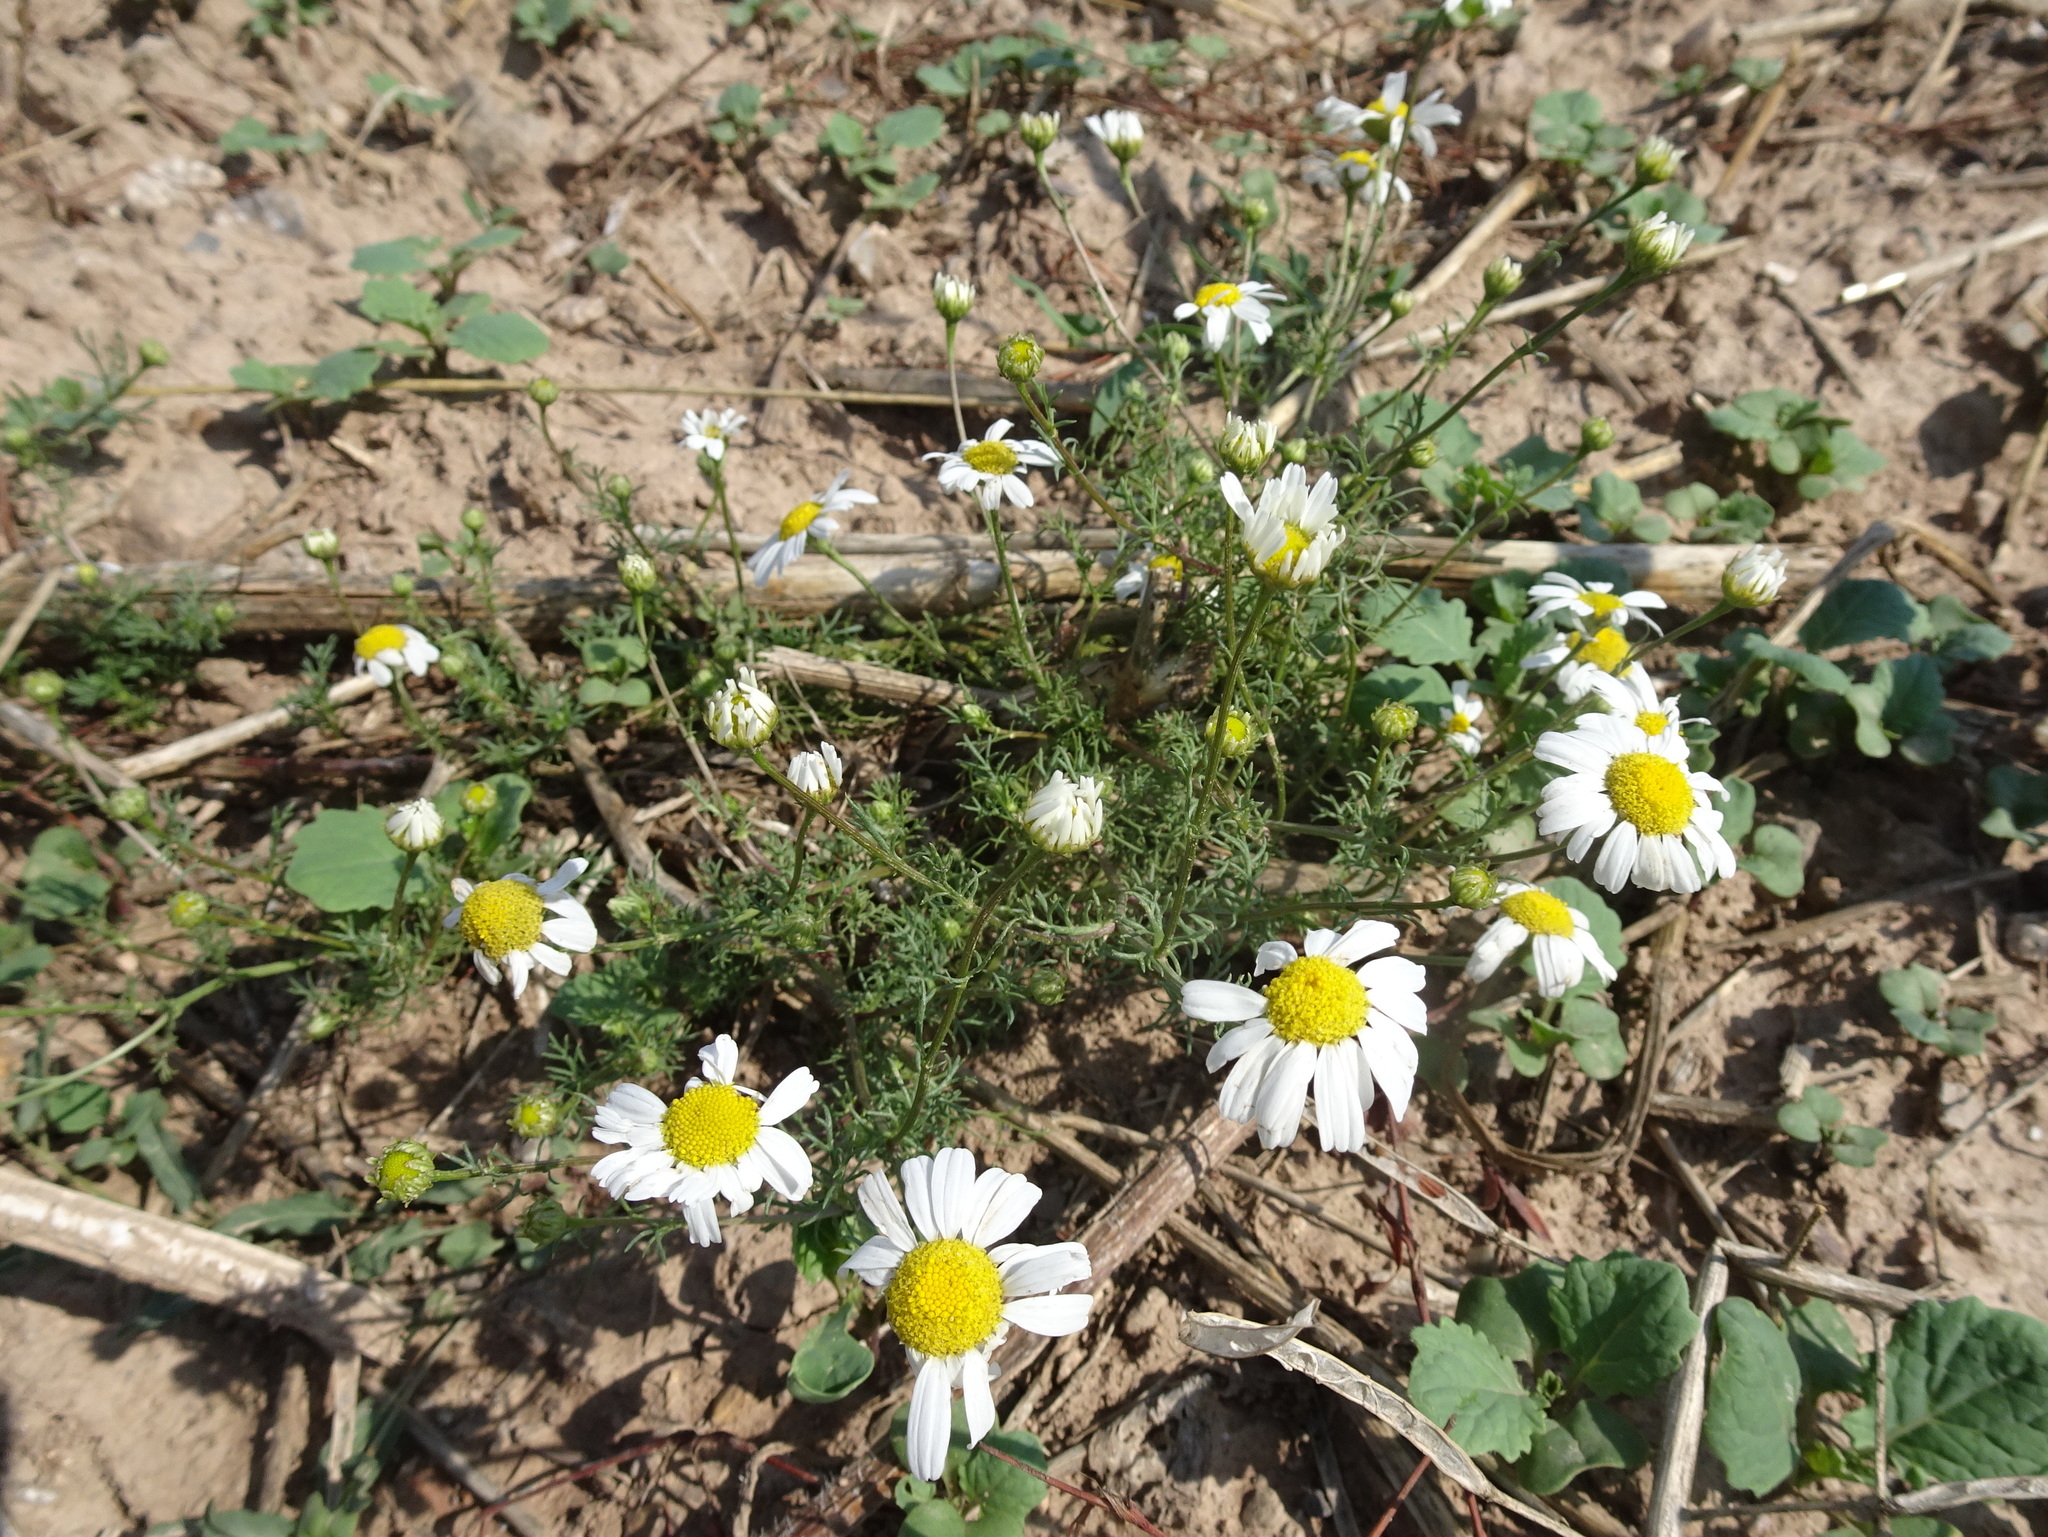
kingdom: Plantae
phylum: Tracheophyta
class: Magnoliopsida
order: Asterales
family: Asteraceae
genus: Matricaria
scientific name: Matricaria chamomilla
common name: Scented mayweed
